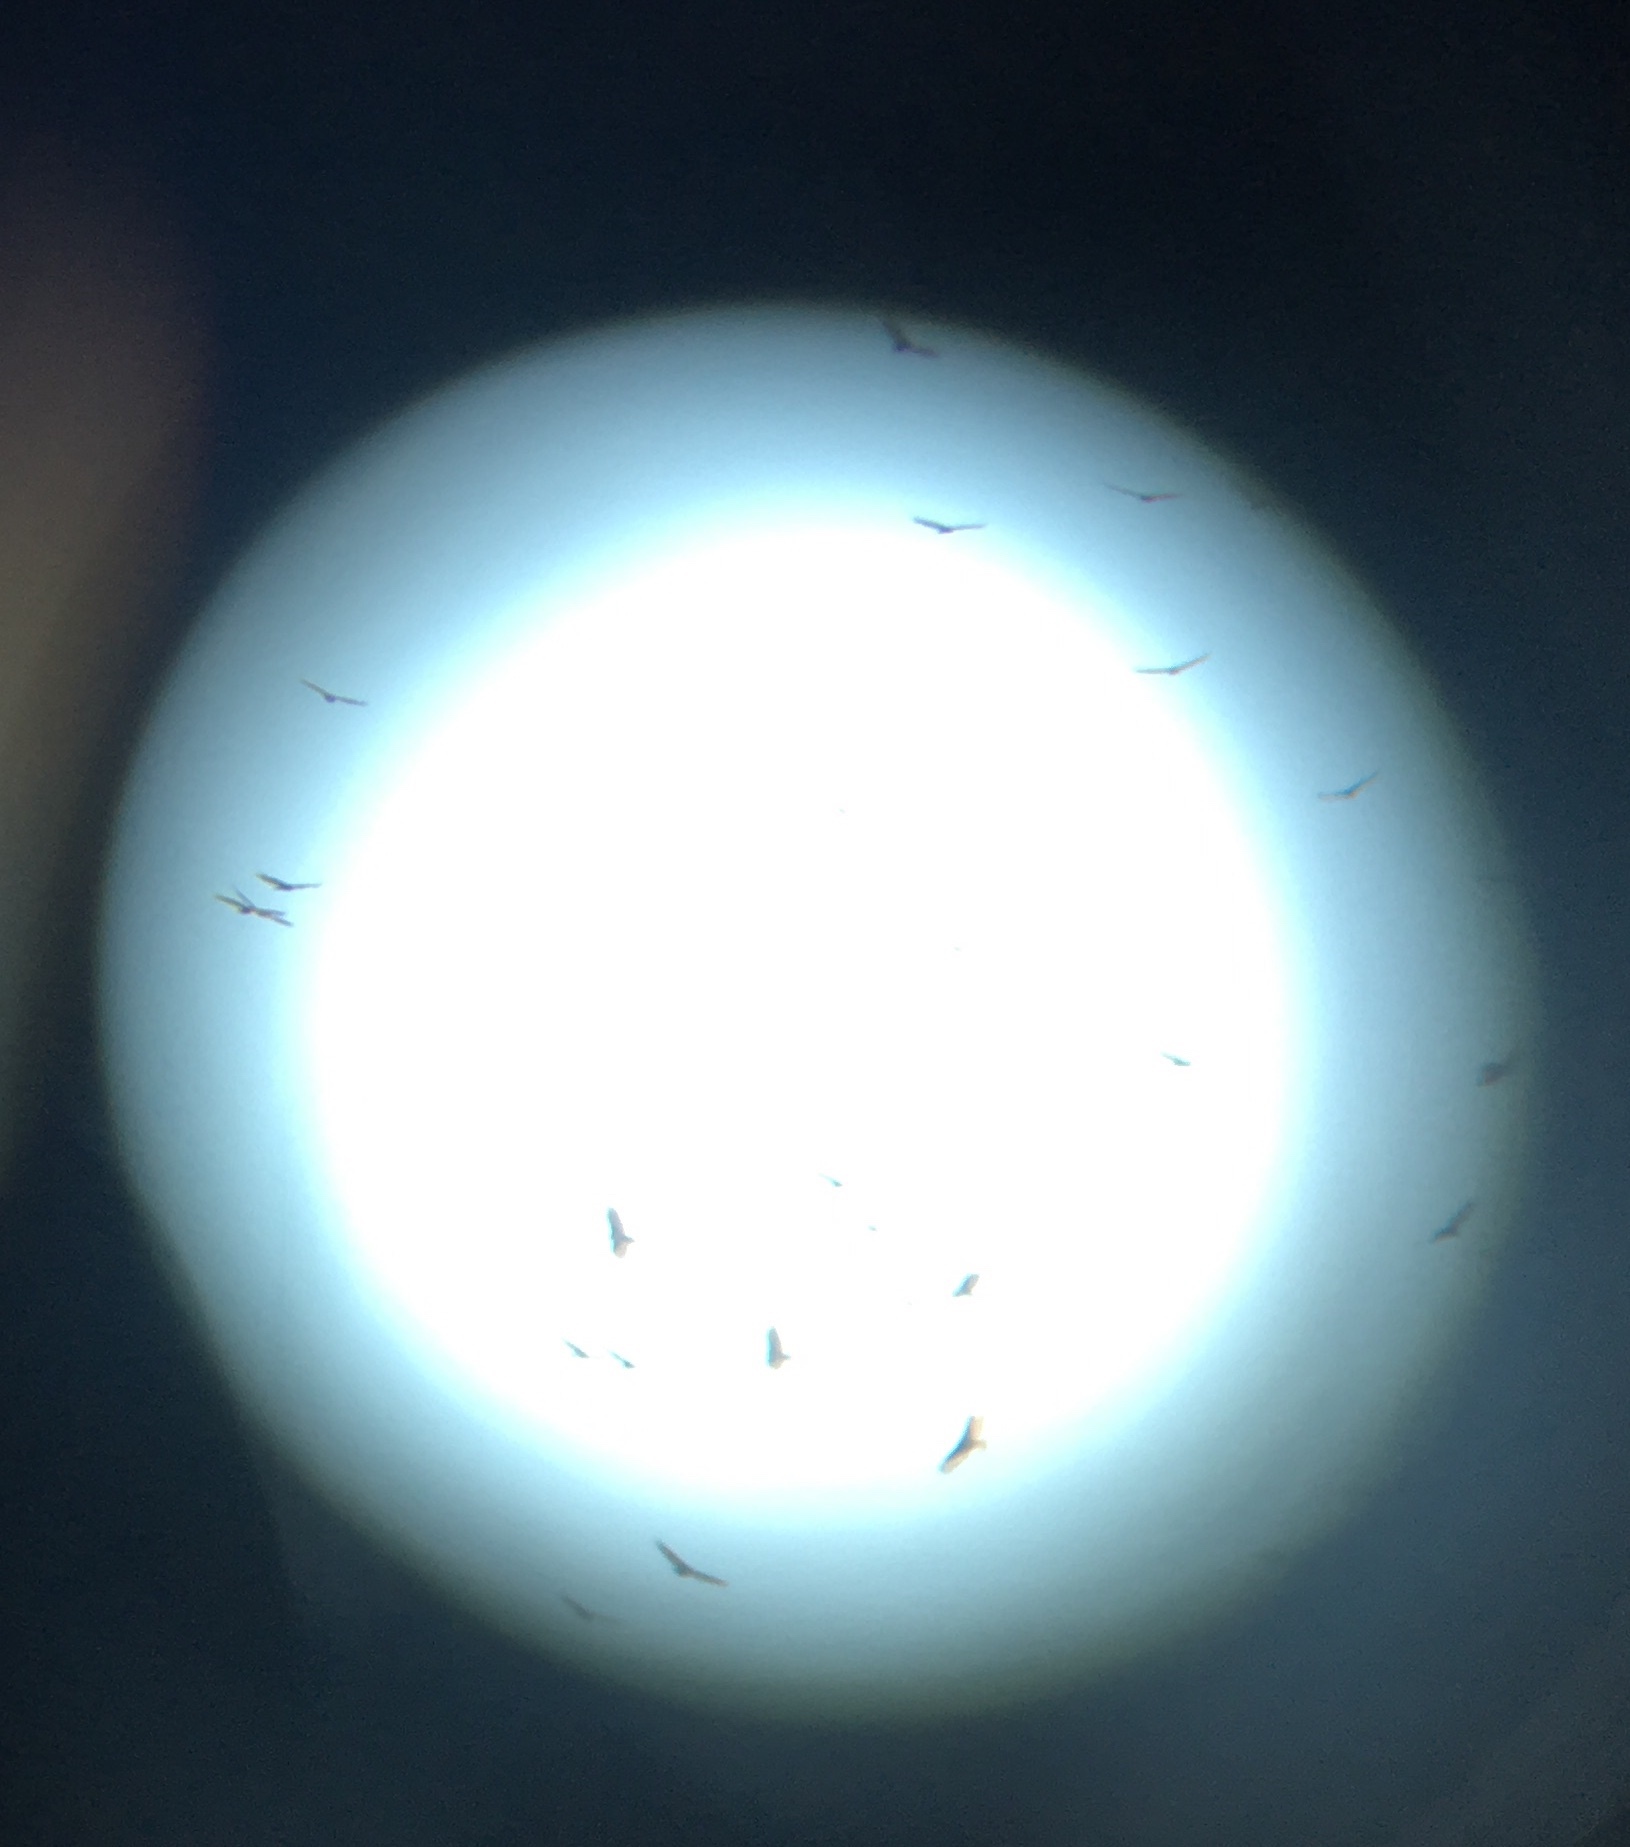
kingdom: Animalia
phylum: Chordata
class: Aves
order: Accipitriformes
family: Cathartidae
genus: Cathartes
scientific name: Cathartes aura
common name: Turkey vulture
